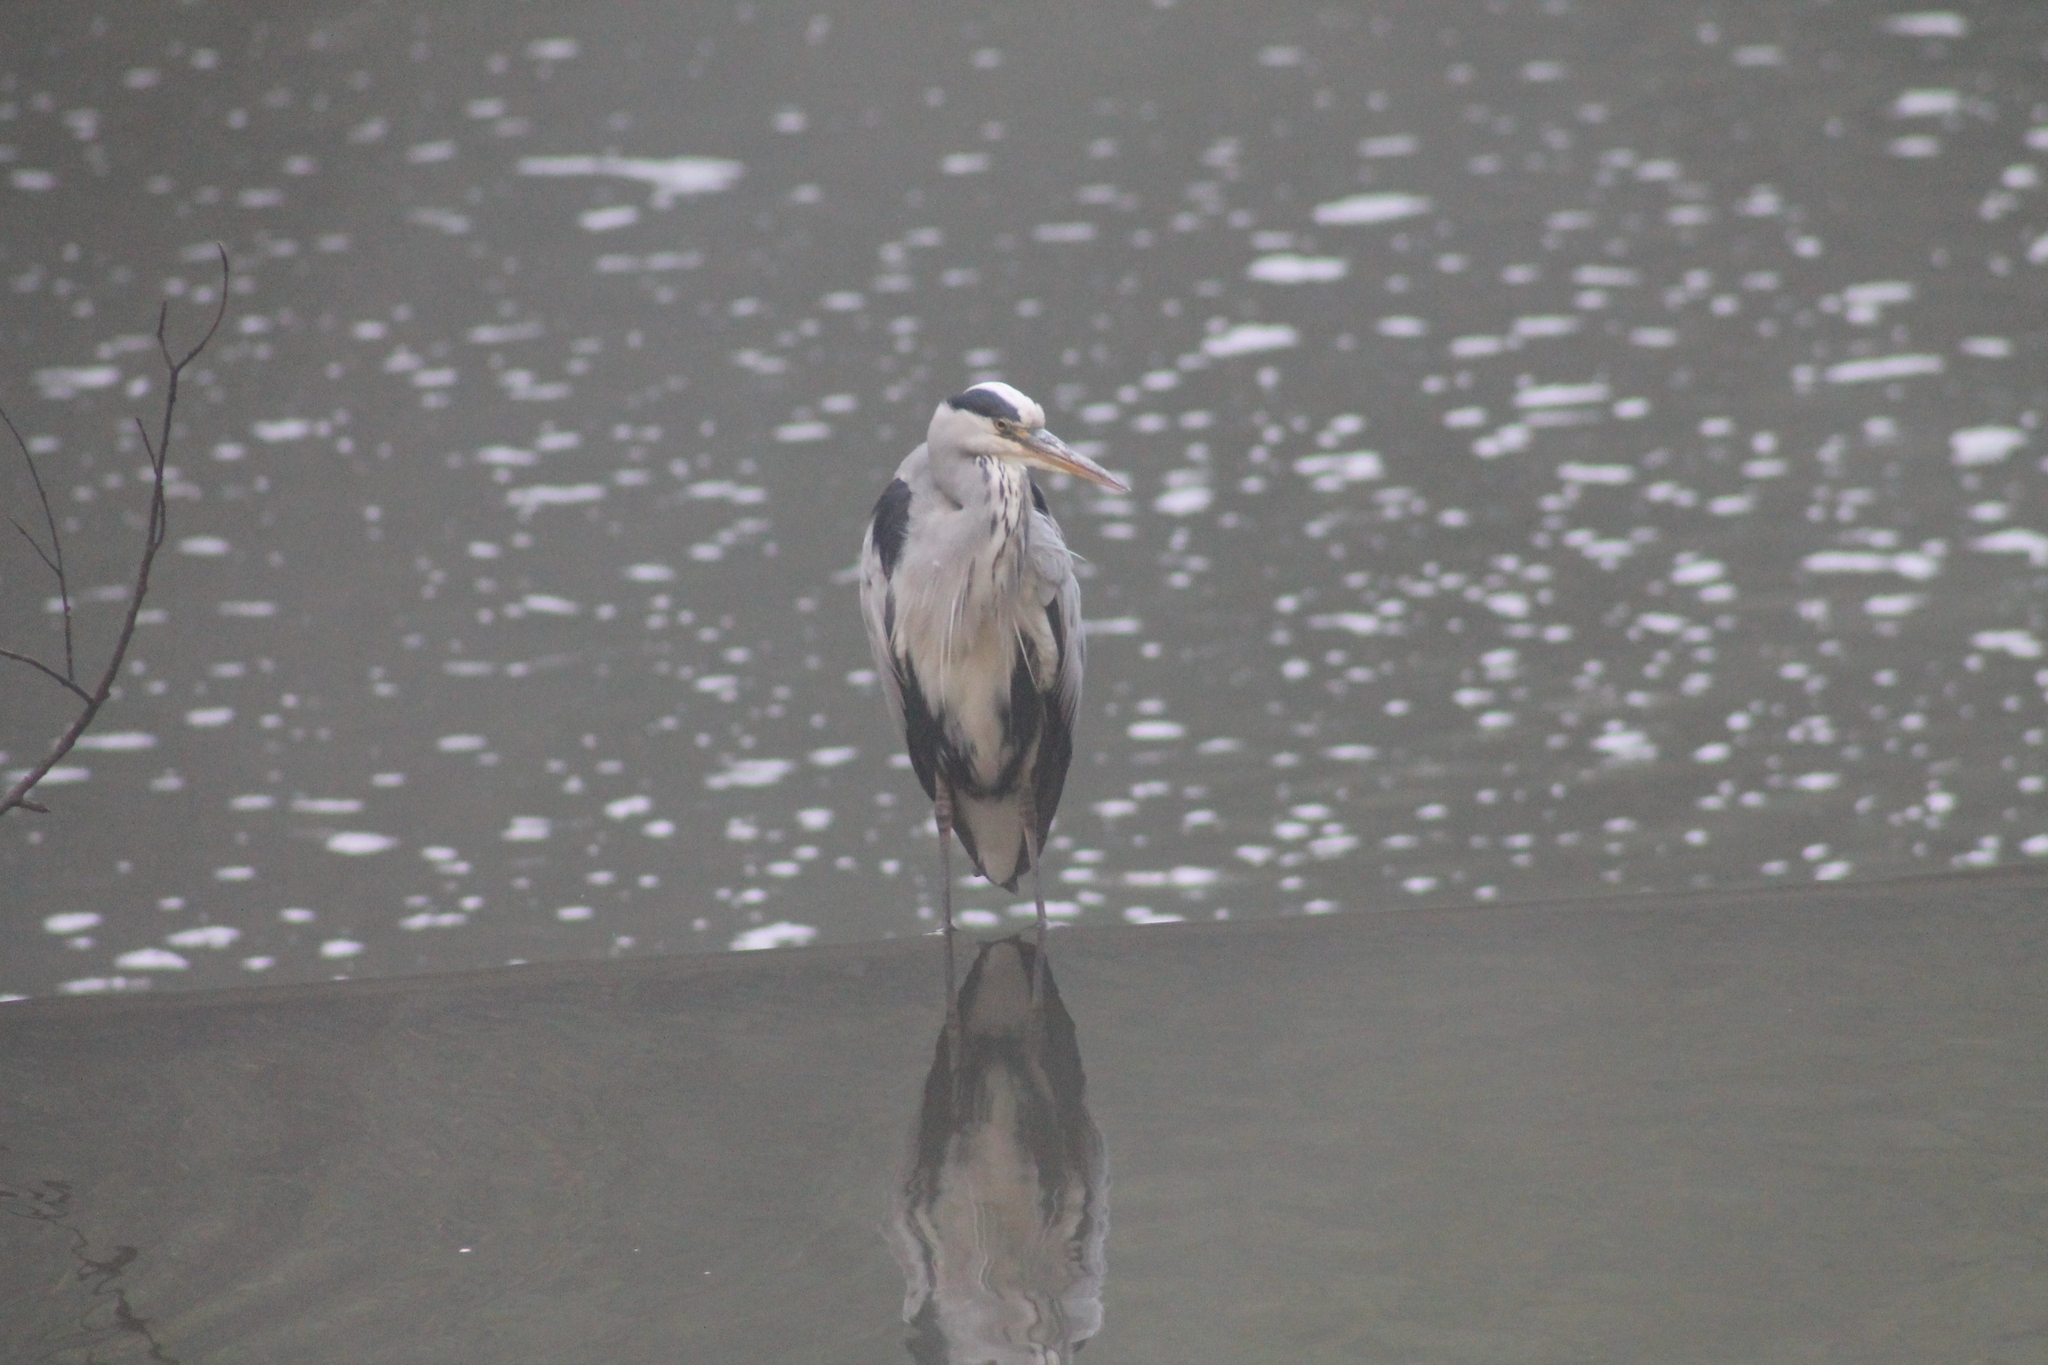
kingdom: Animalia
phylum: Chordata
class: Aves
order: Pelecaniformes
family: Ardeidae
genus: Ardea
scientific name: Ardea cinerea
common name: Grey heron
